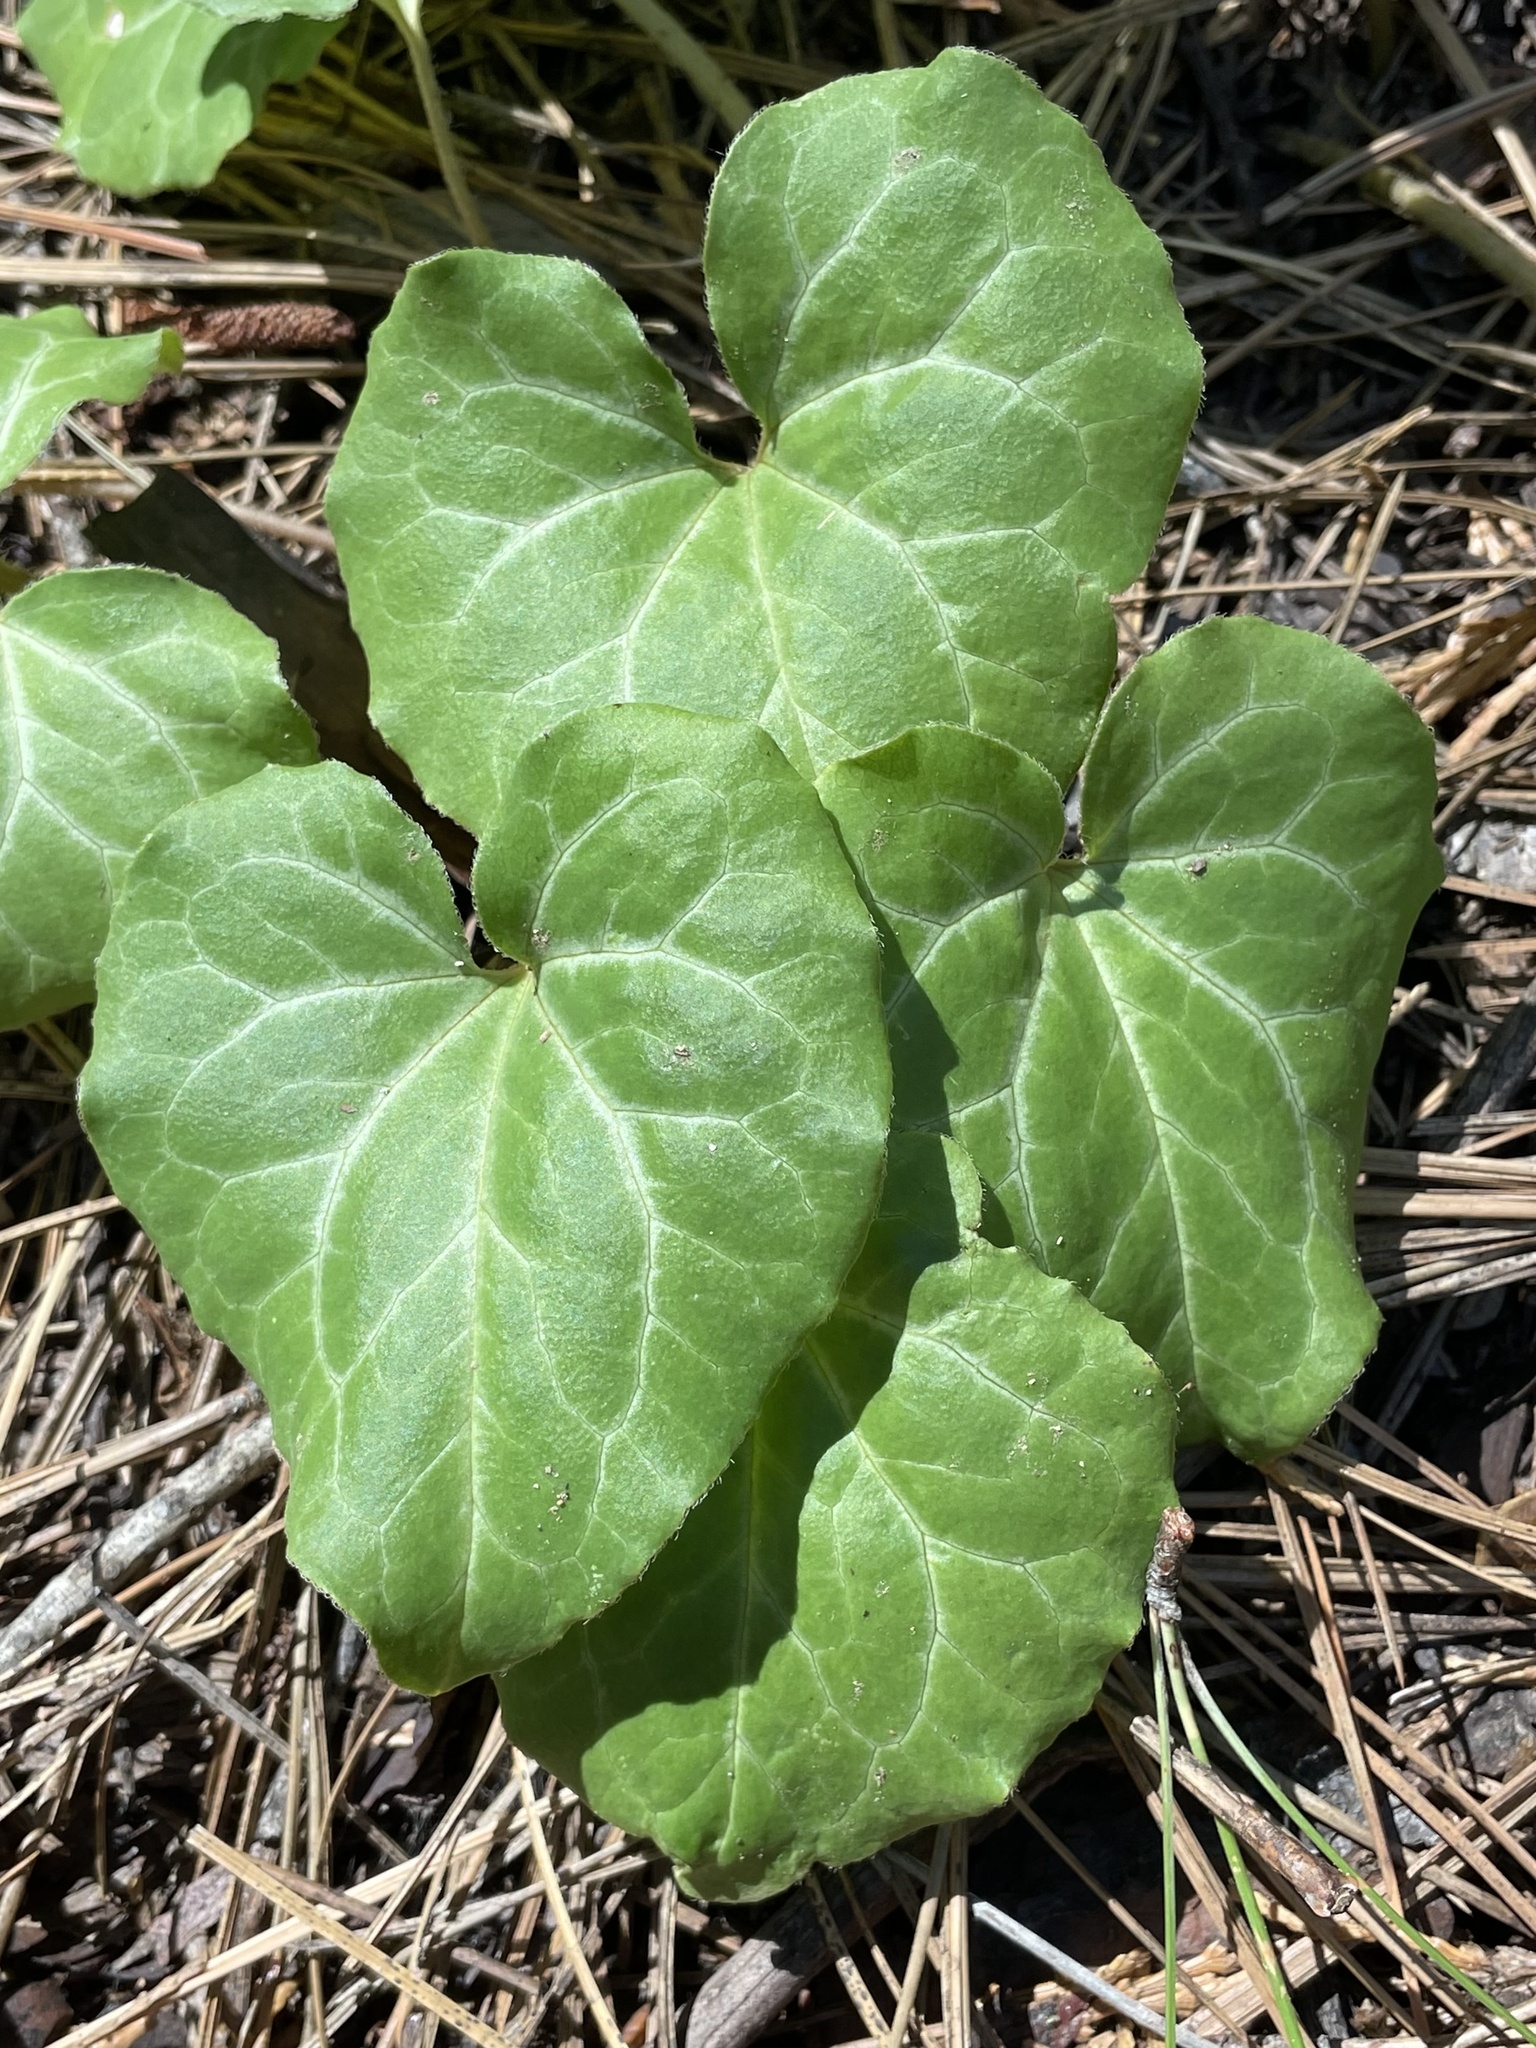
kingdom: Plantae
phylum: Tracheophyta
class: Magnoliopsida
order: Piperales
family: Aristolochiaceae
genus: Asarum
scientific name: Asarum hartwegii
